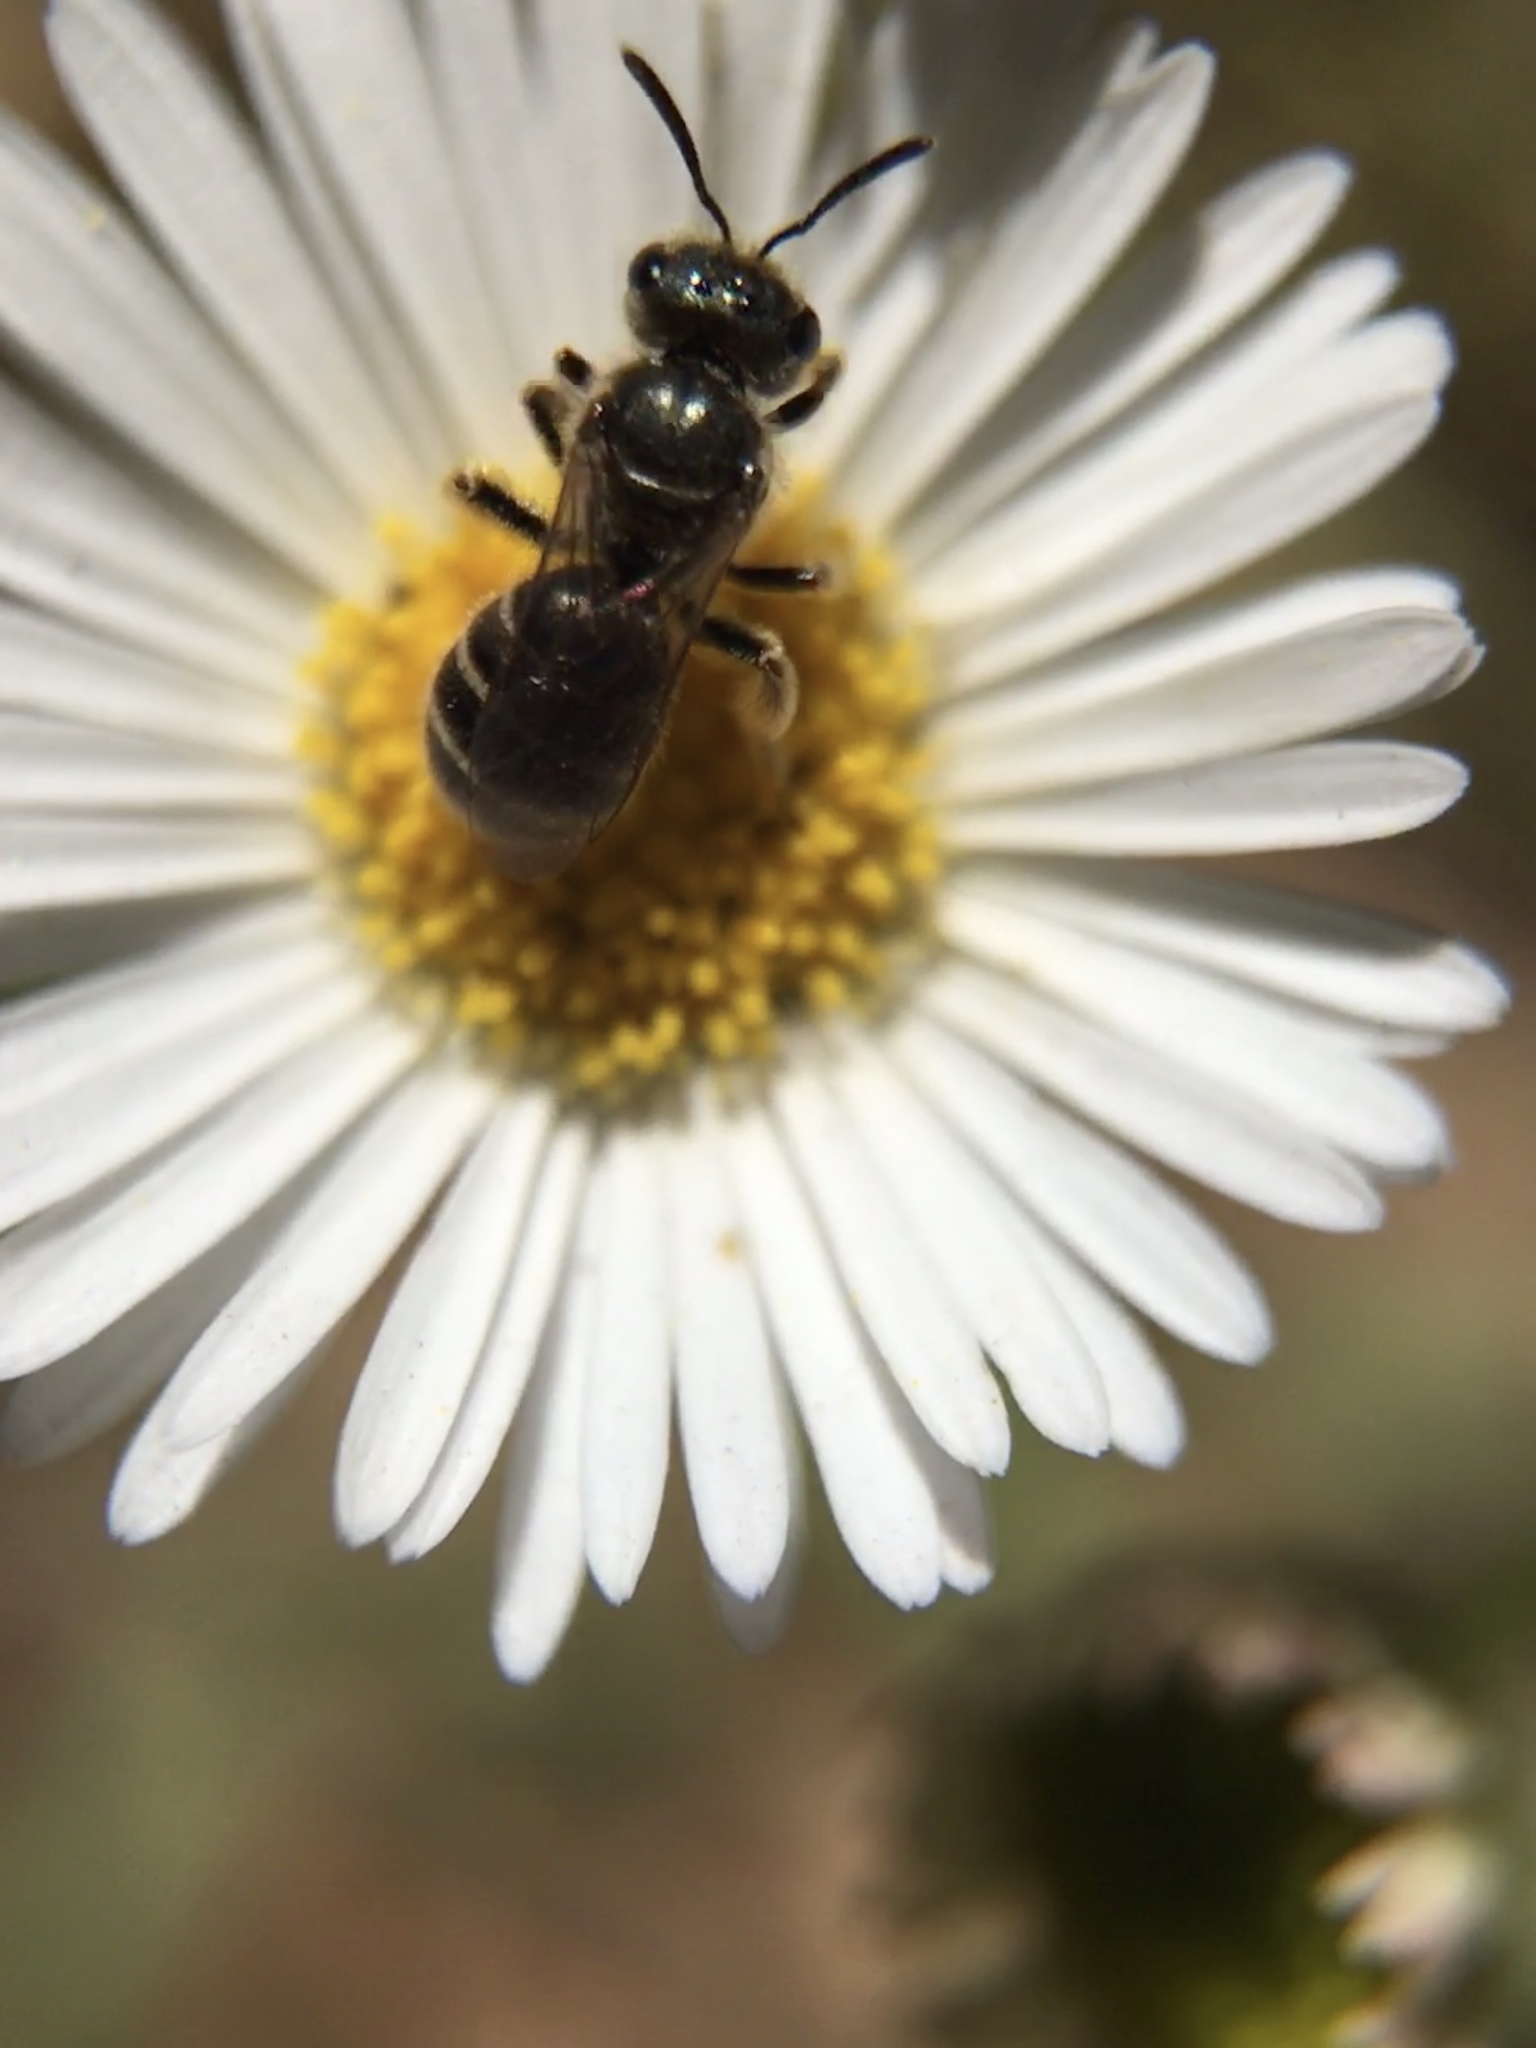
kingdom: Animalia
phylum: Arthropoda
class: Insecta
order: Hymenoptera
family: Halictidae
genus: Halictus
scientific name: Halictus tripartitus
